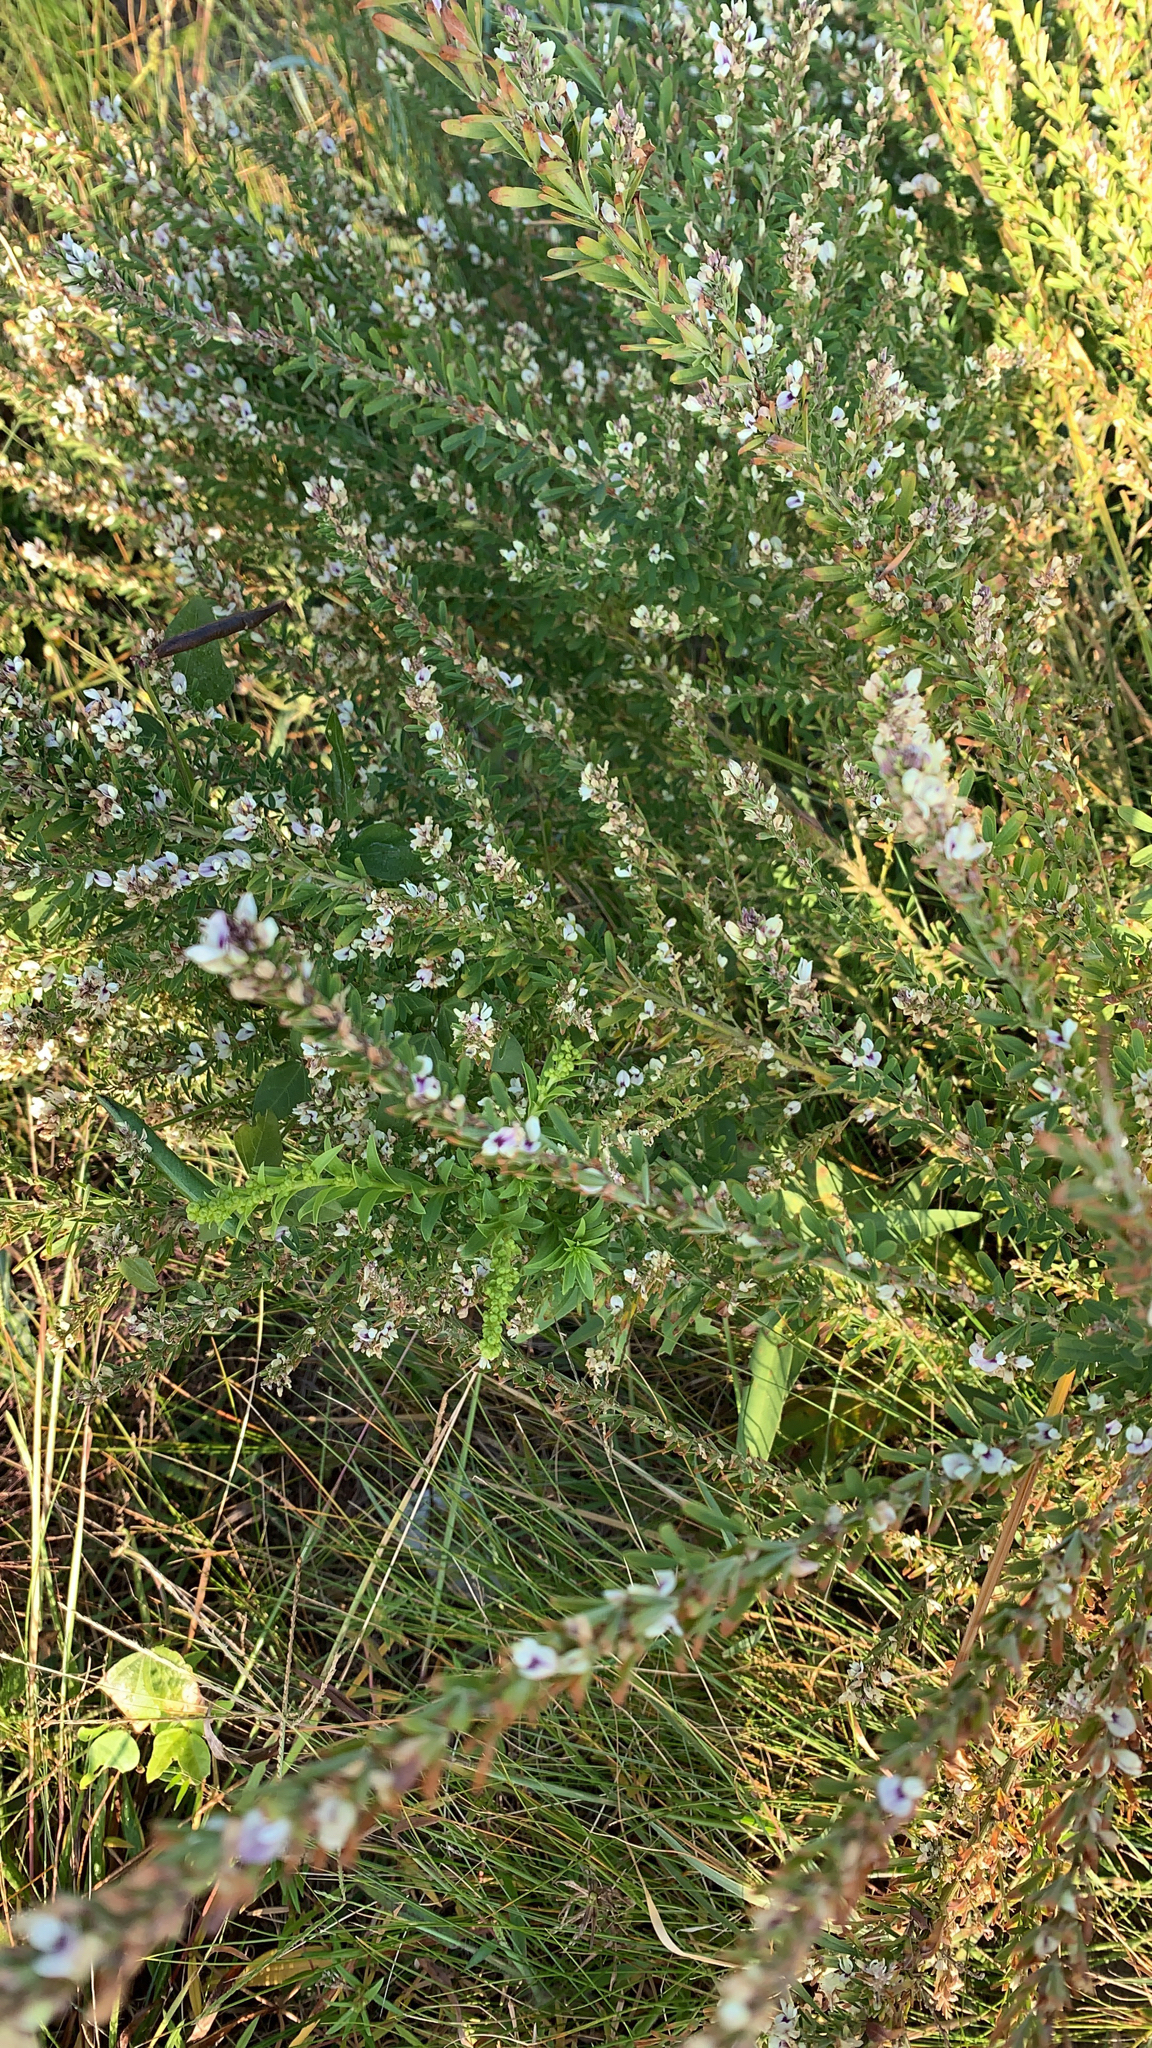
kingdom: Plantae
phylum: Tracheophyta
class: Magnoliopsida
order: Fabales
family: Fabaceae
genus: Lespedeza
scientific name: Lespedeza cuneata
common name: Chinese bush-clover
